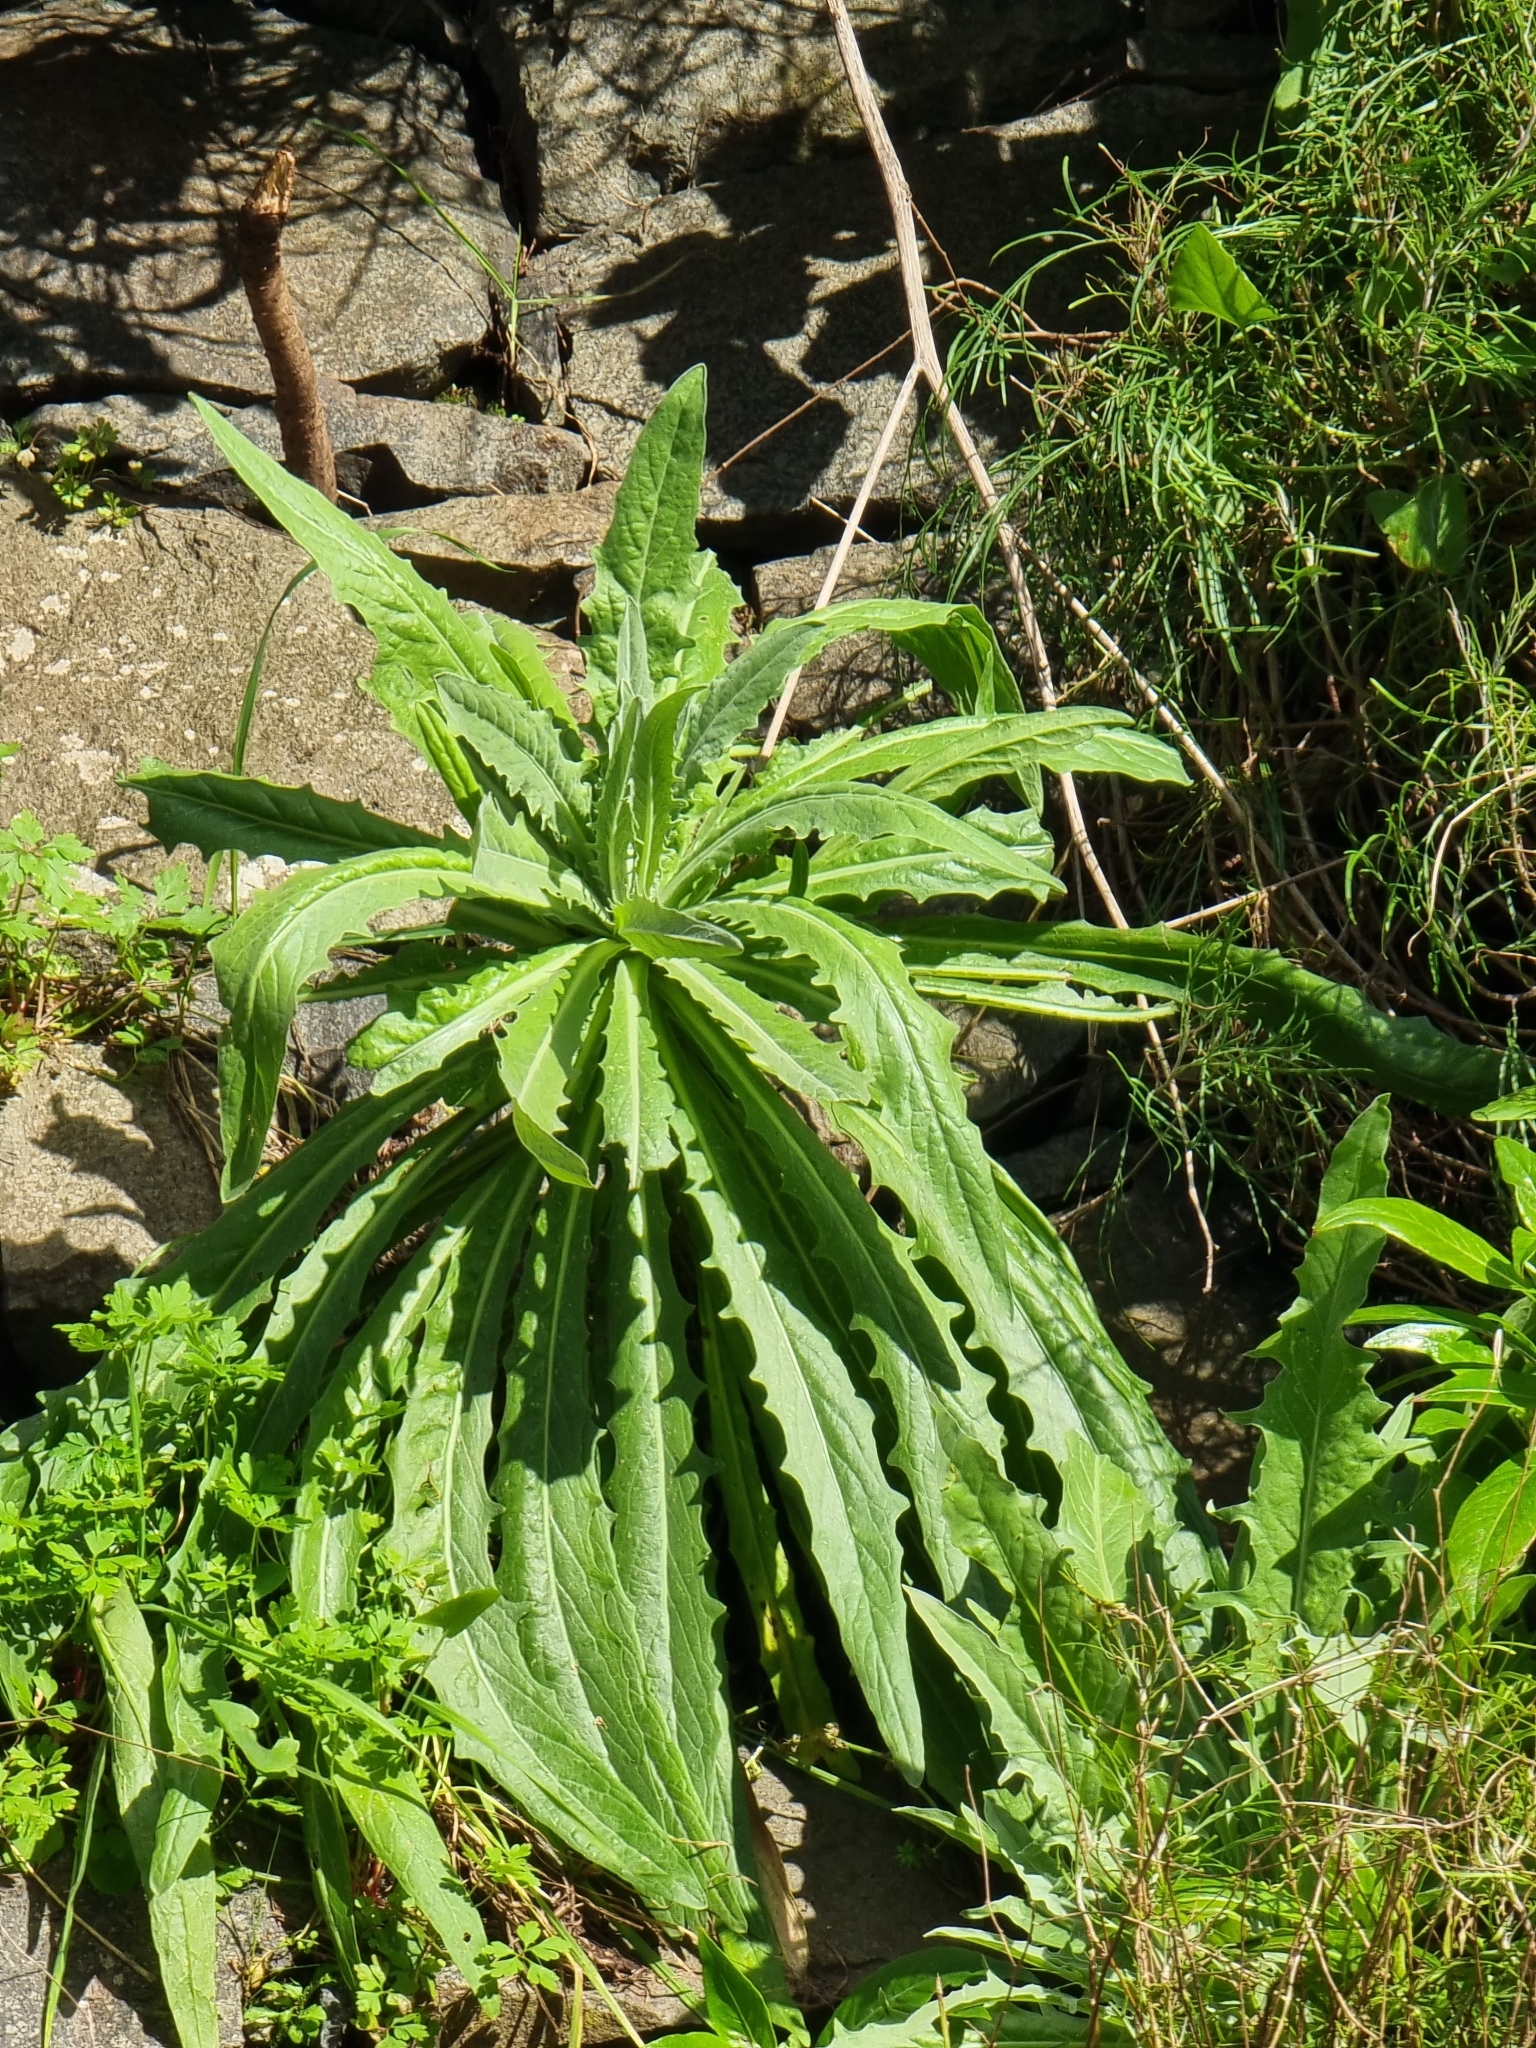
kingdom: Plantae
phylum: Tracheophyta
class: Magnoliopsida
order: Asterales
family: Asteraceae
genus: Andryala
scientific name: Andryala glandulosa
